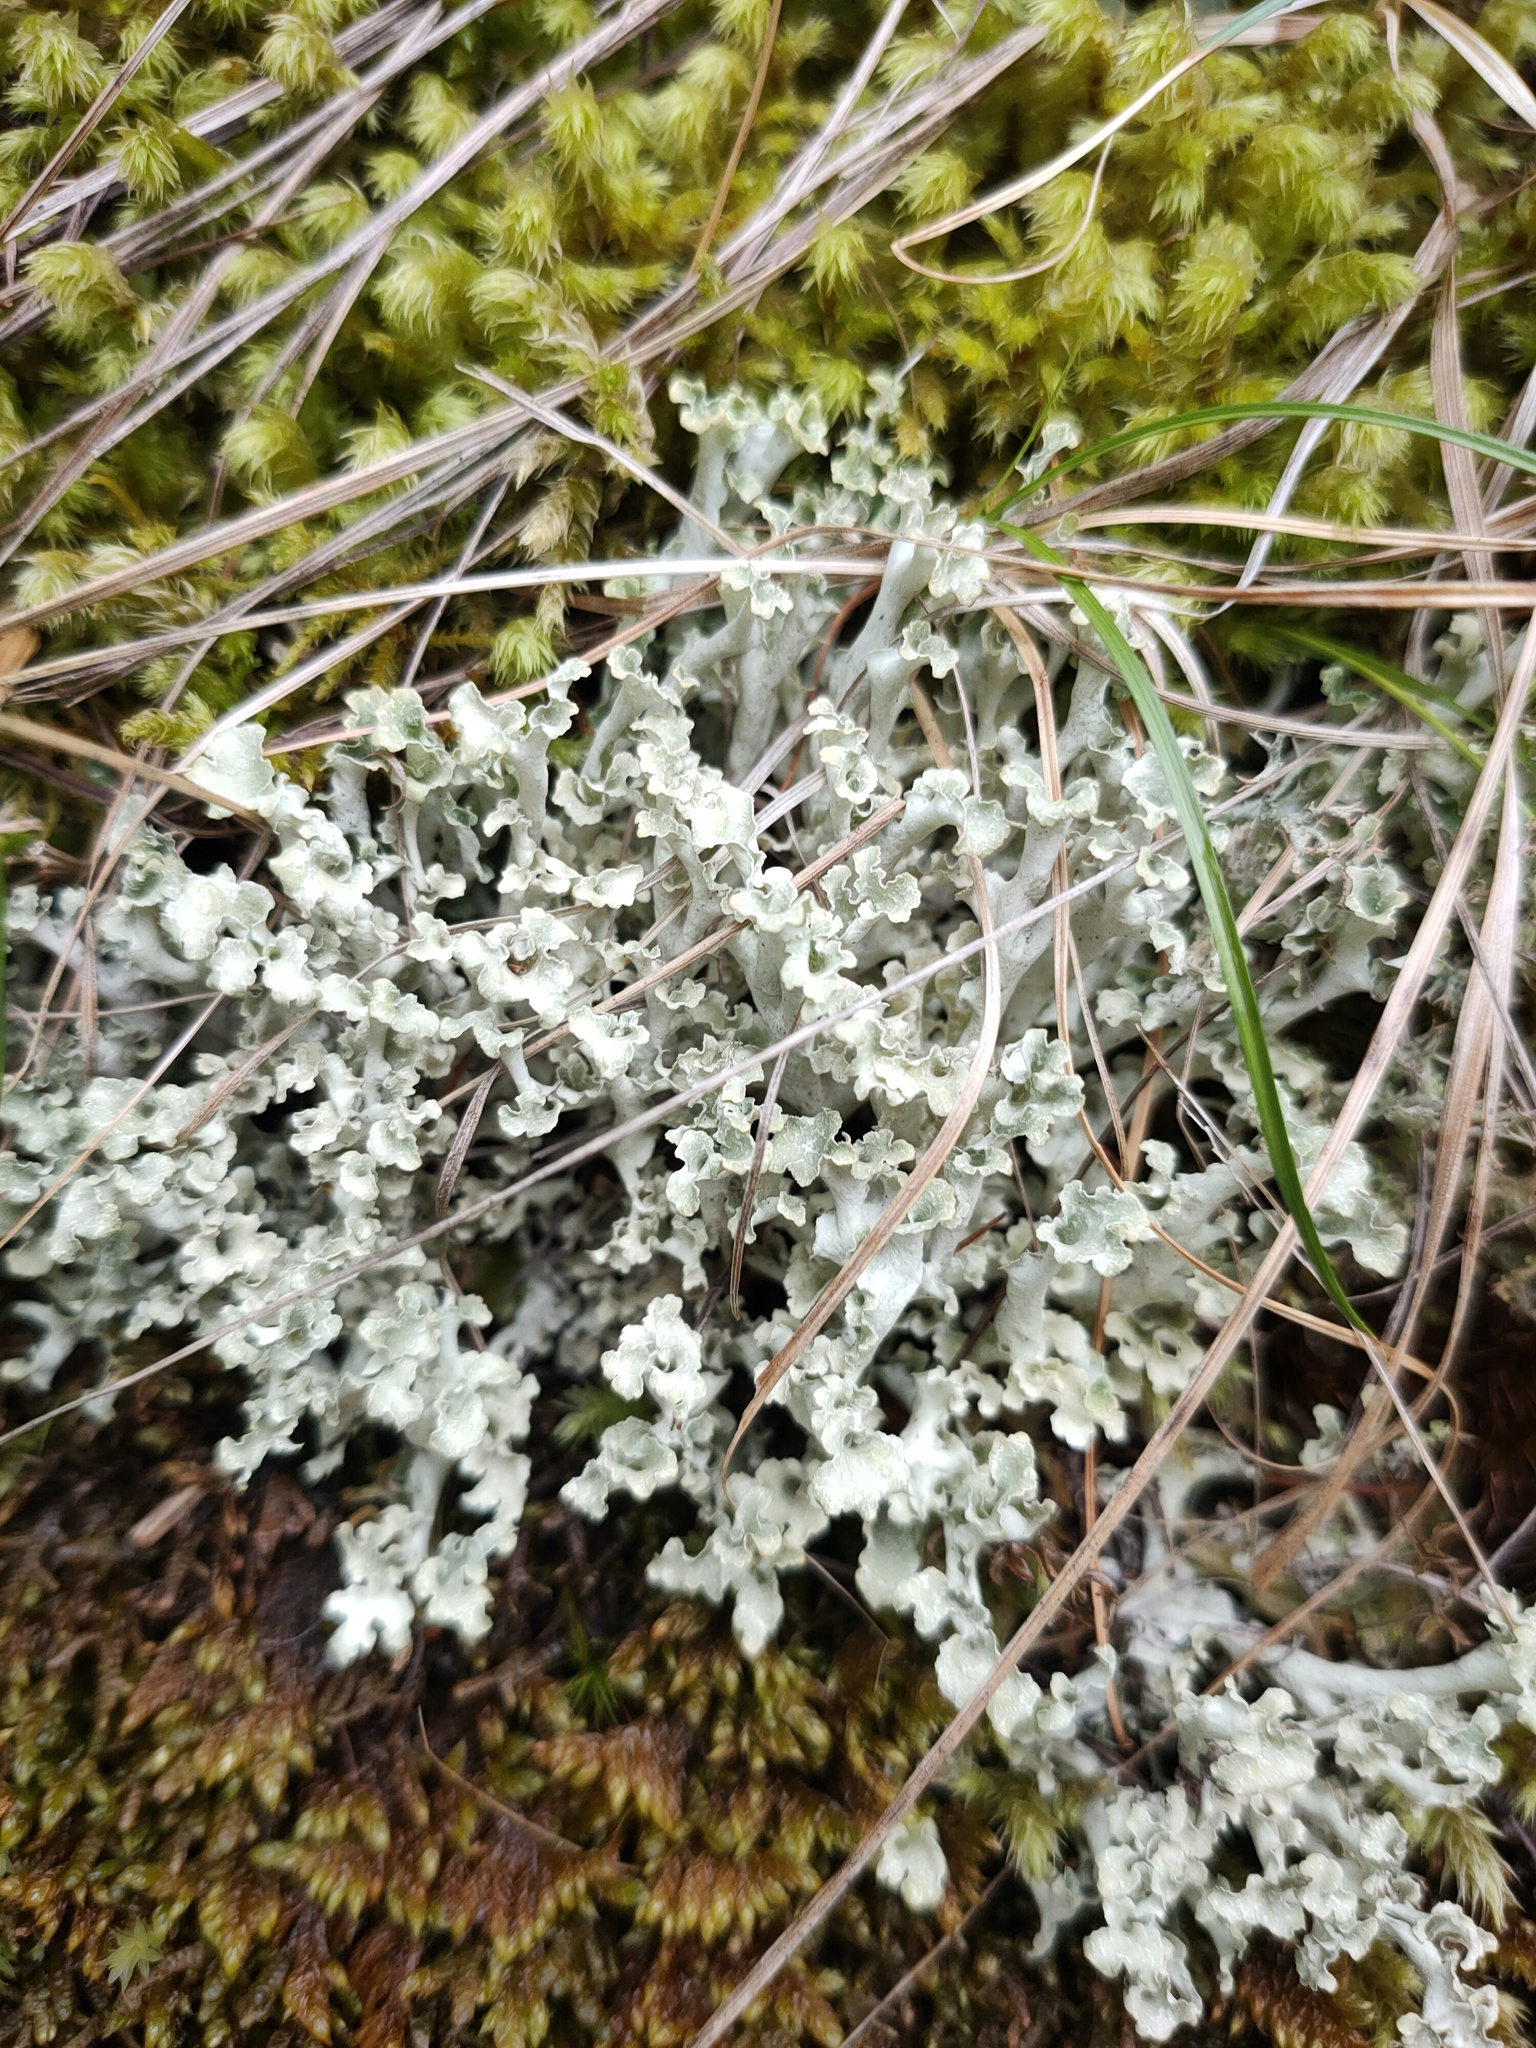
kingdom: Fungi
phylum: Ascomycota
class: Lecanoromycetes
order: Lecanorales
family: Parmeliaceae
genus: Nephromopsis
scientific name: Nephromopsis cucullata
